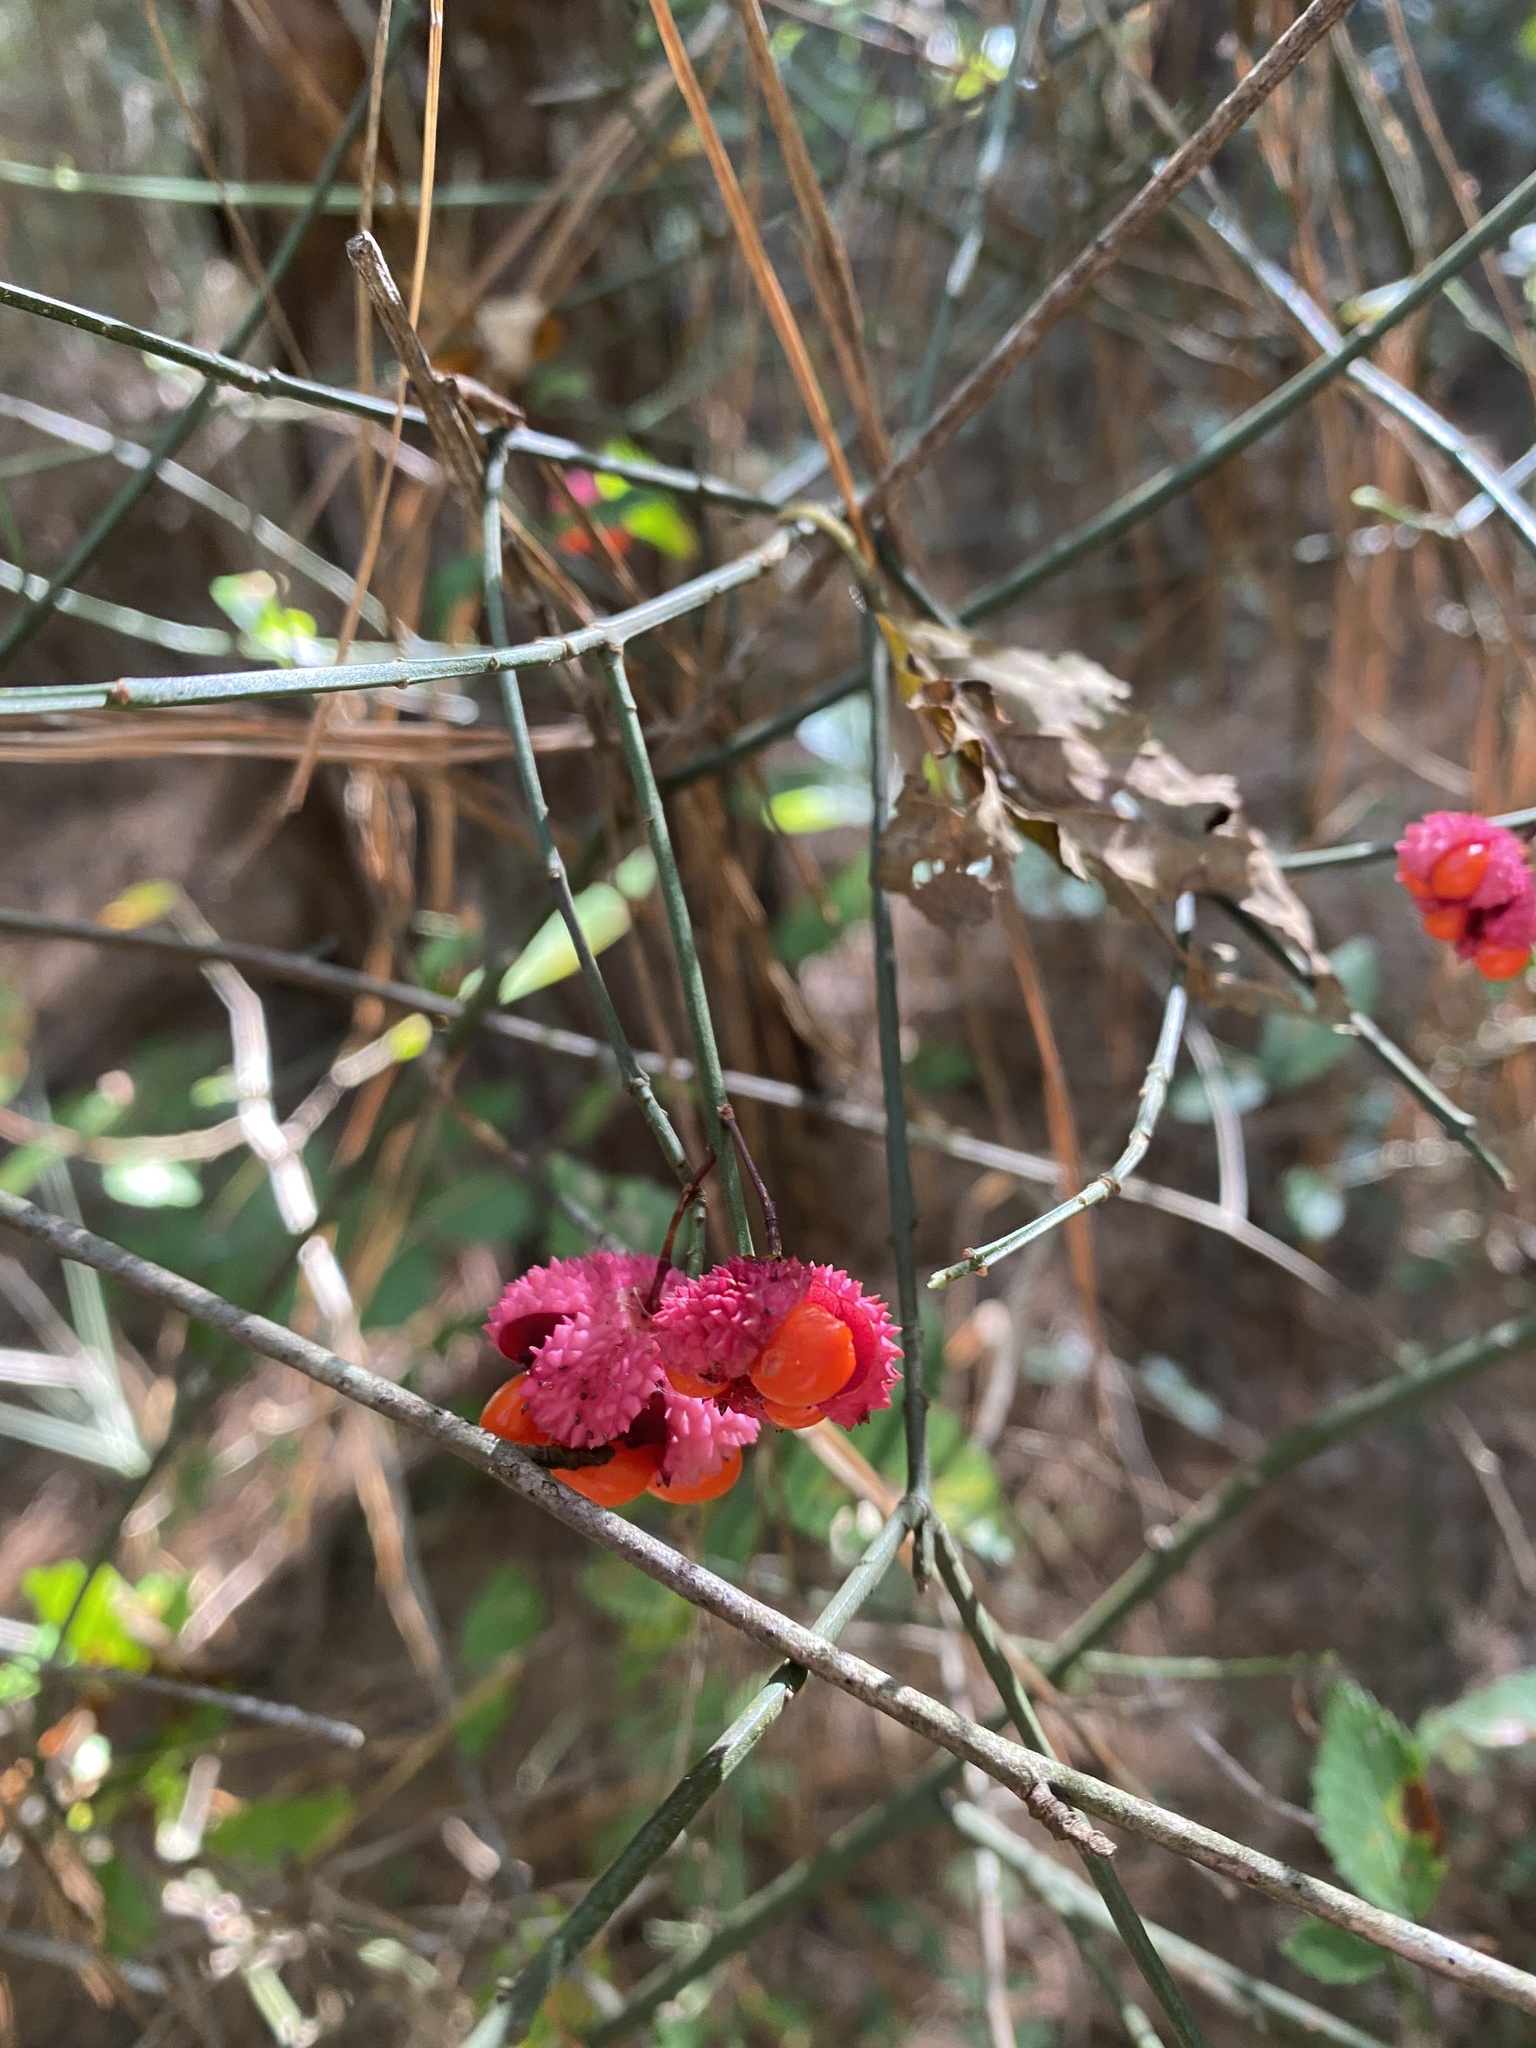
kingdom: Plantae
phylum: Tracheophyta
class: Magnoliopsida
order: Celastrales
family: Celastraceae
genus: Euonymus
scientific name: Euonymus americanus
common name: Bursting-heart
